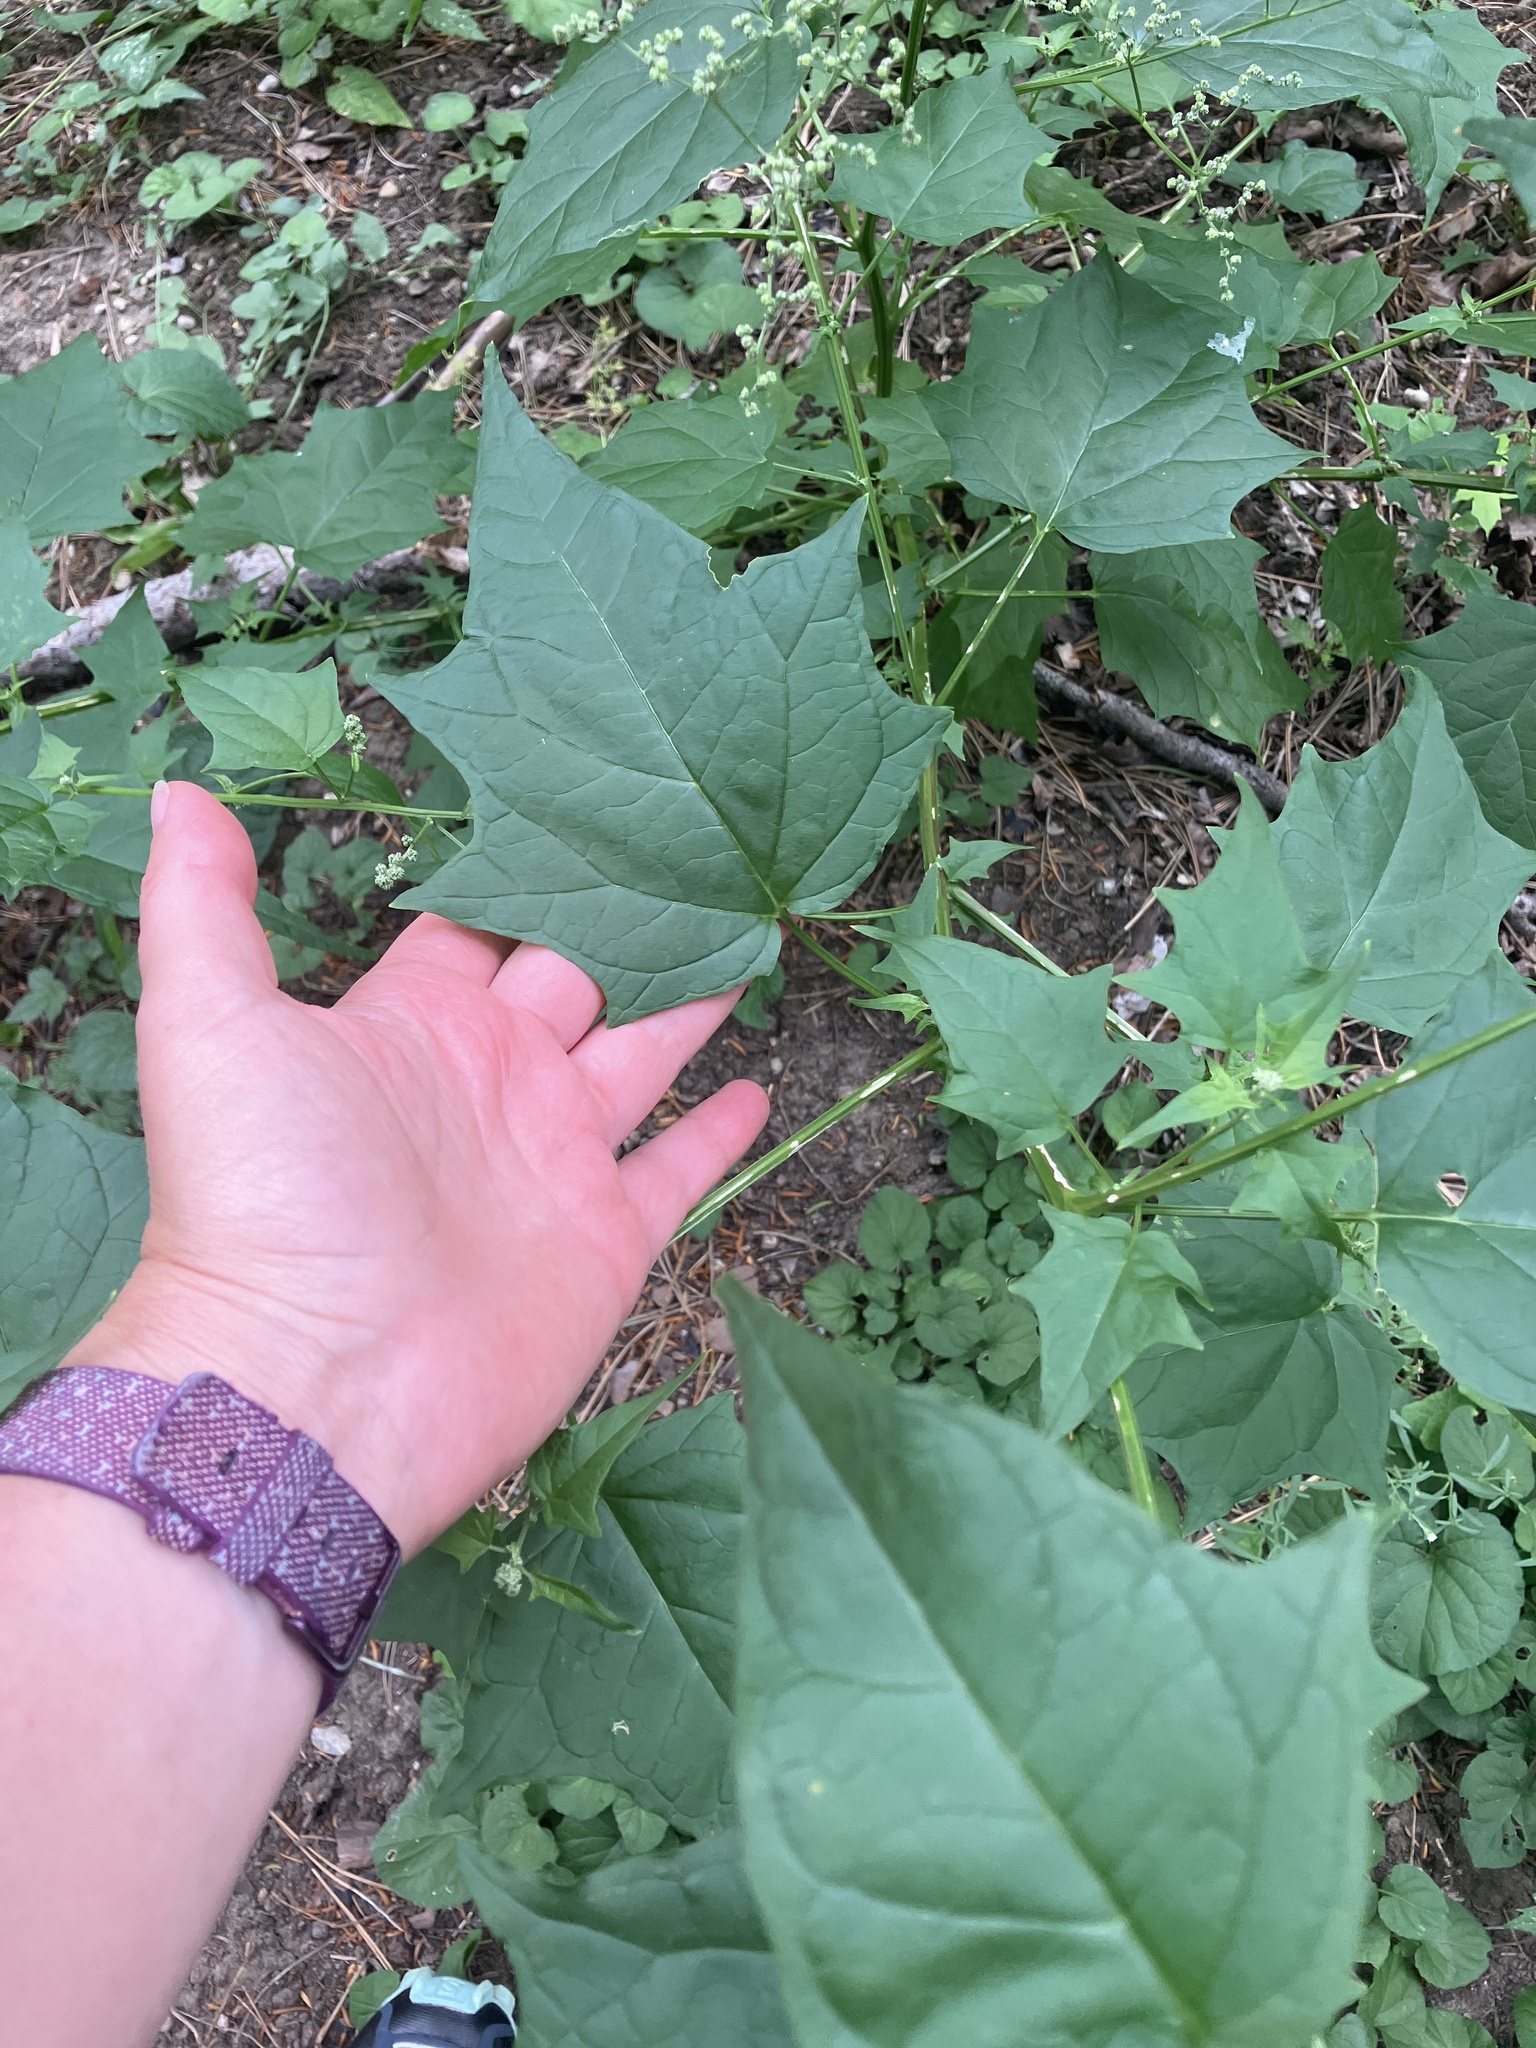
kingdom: Plantae
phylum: Tracheophyta
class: Magnoliopsida
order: Caryophyllales
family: Amaranthaceae
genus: Chenopodiastrum
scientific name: Chenopodiastrum hybridum
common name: Mapleleaf goosefoot
